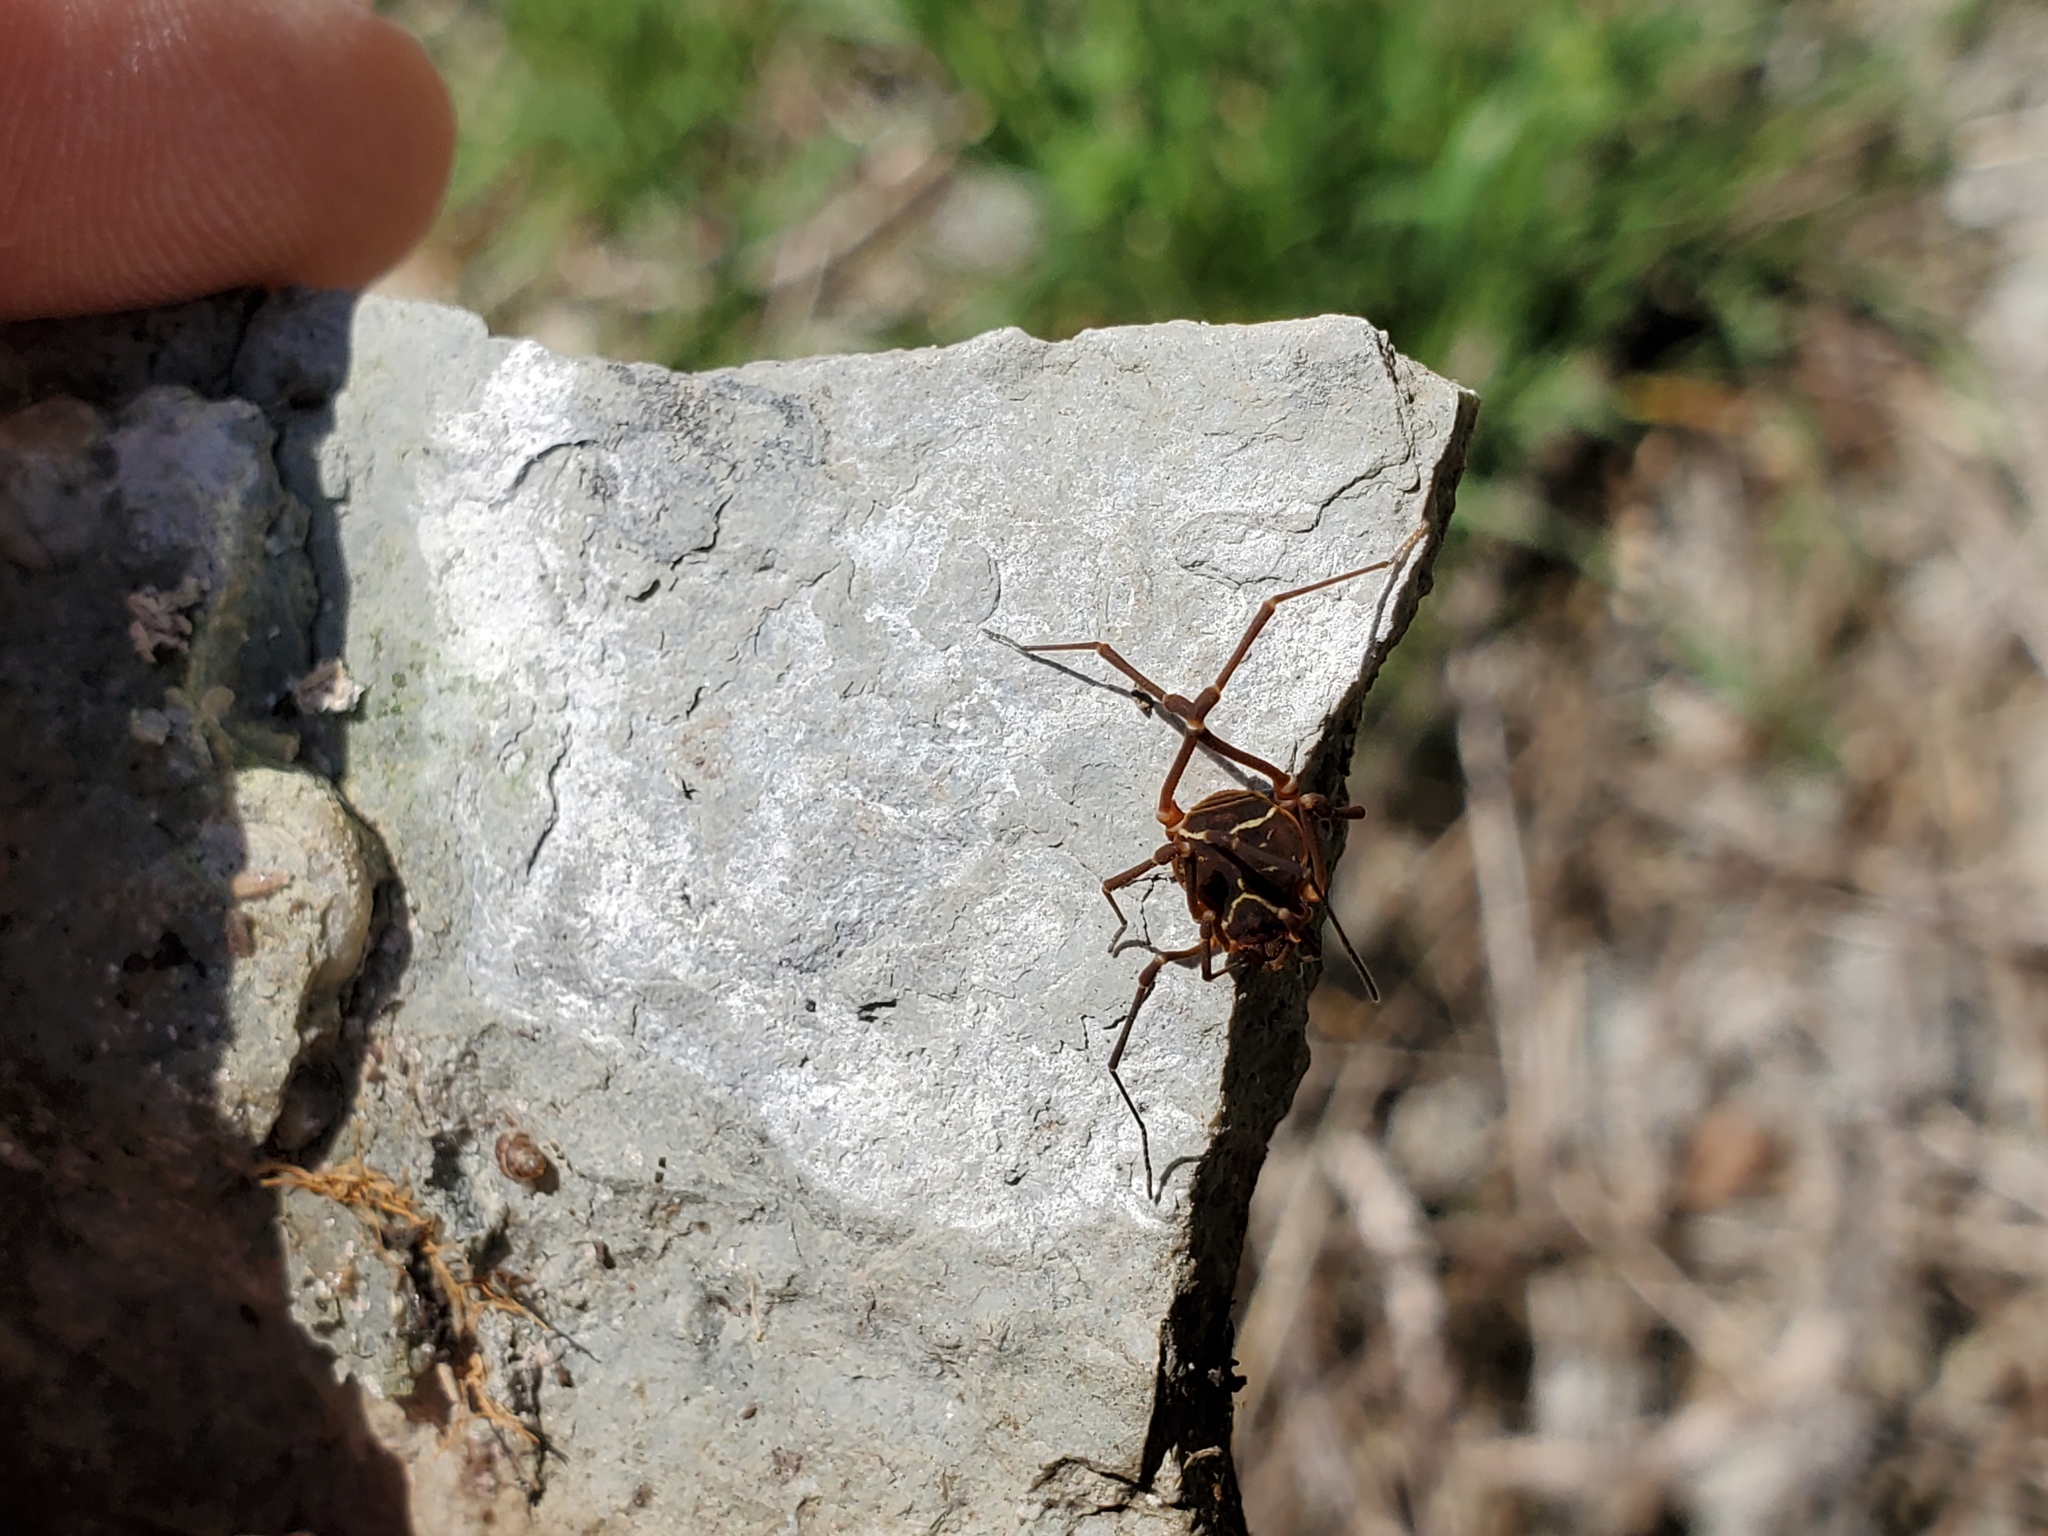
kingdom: Animalia
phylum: Arthropoda
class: Arachnida
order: Opiliones
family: Cosmetidae
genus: Libitioides
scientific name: Libitioides sayi
